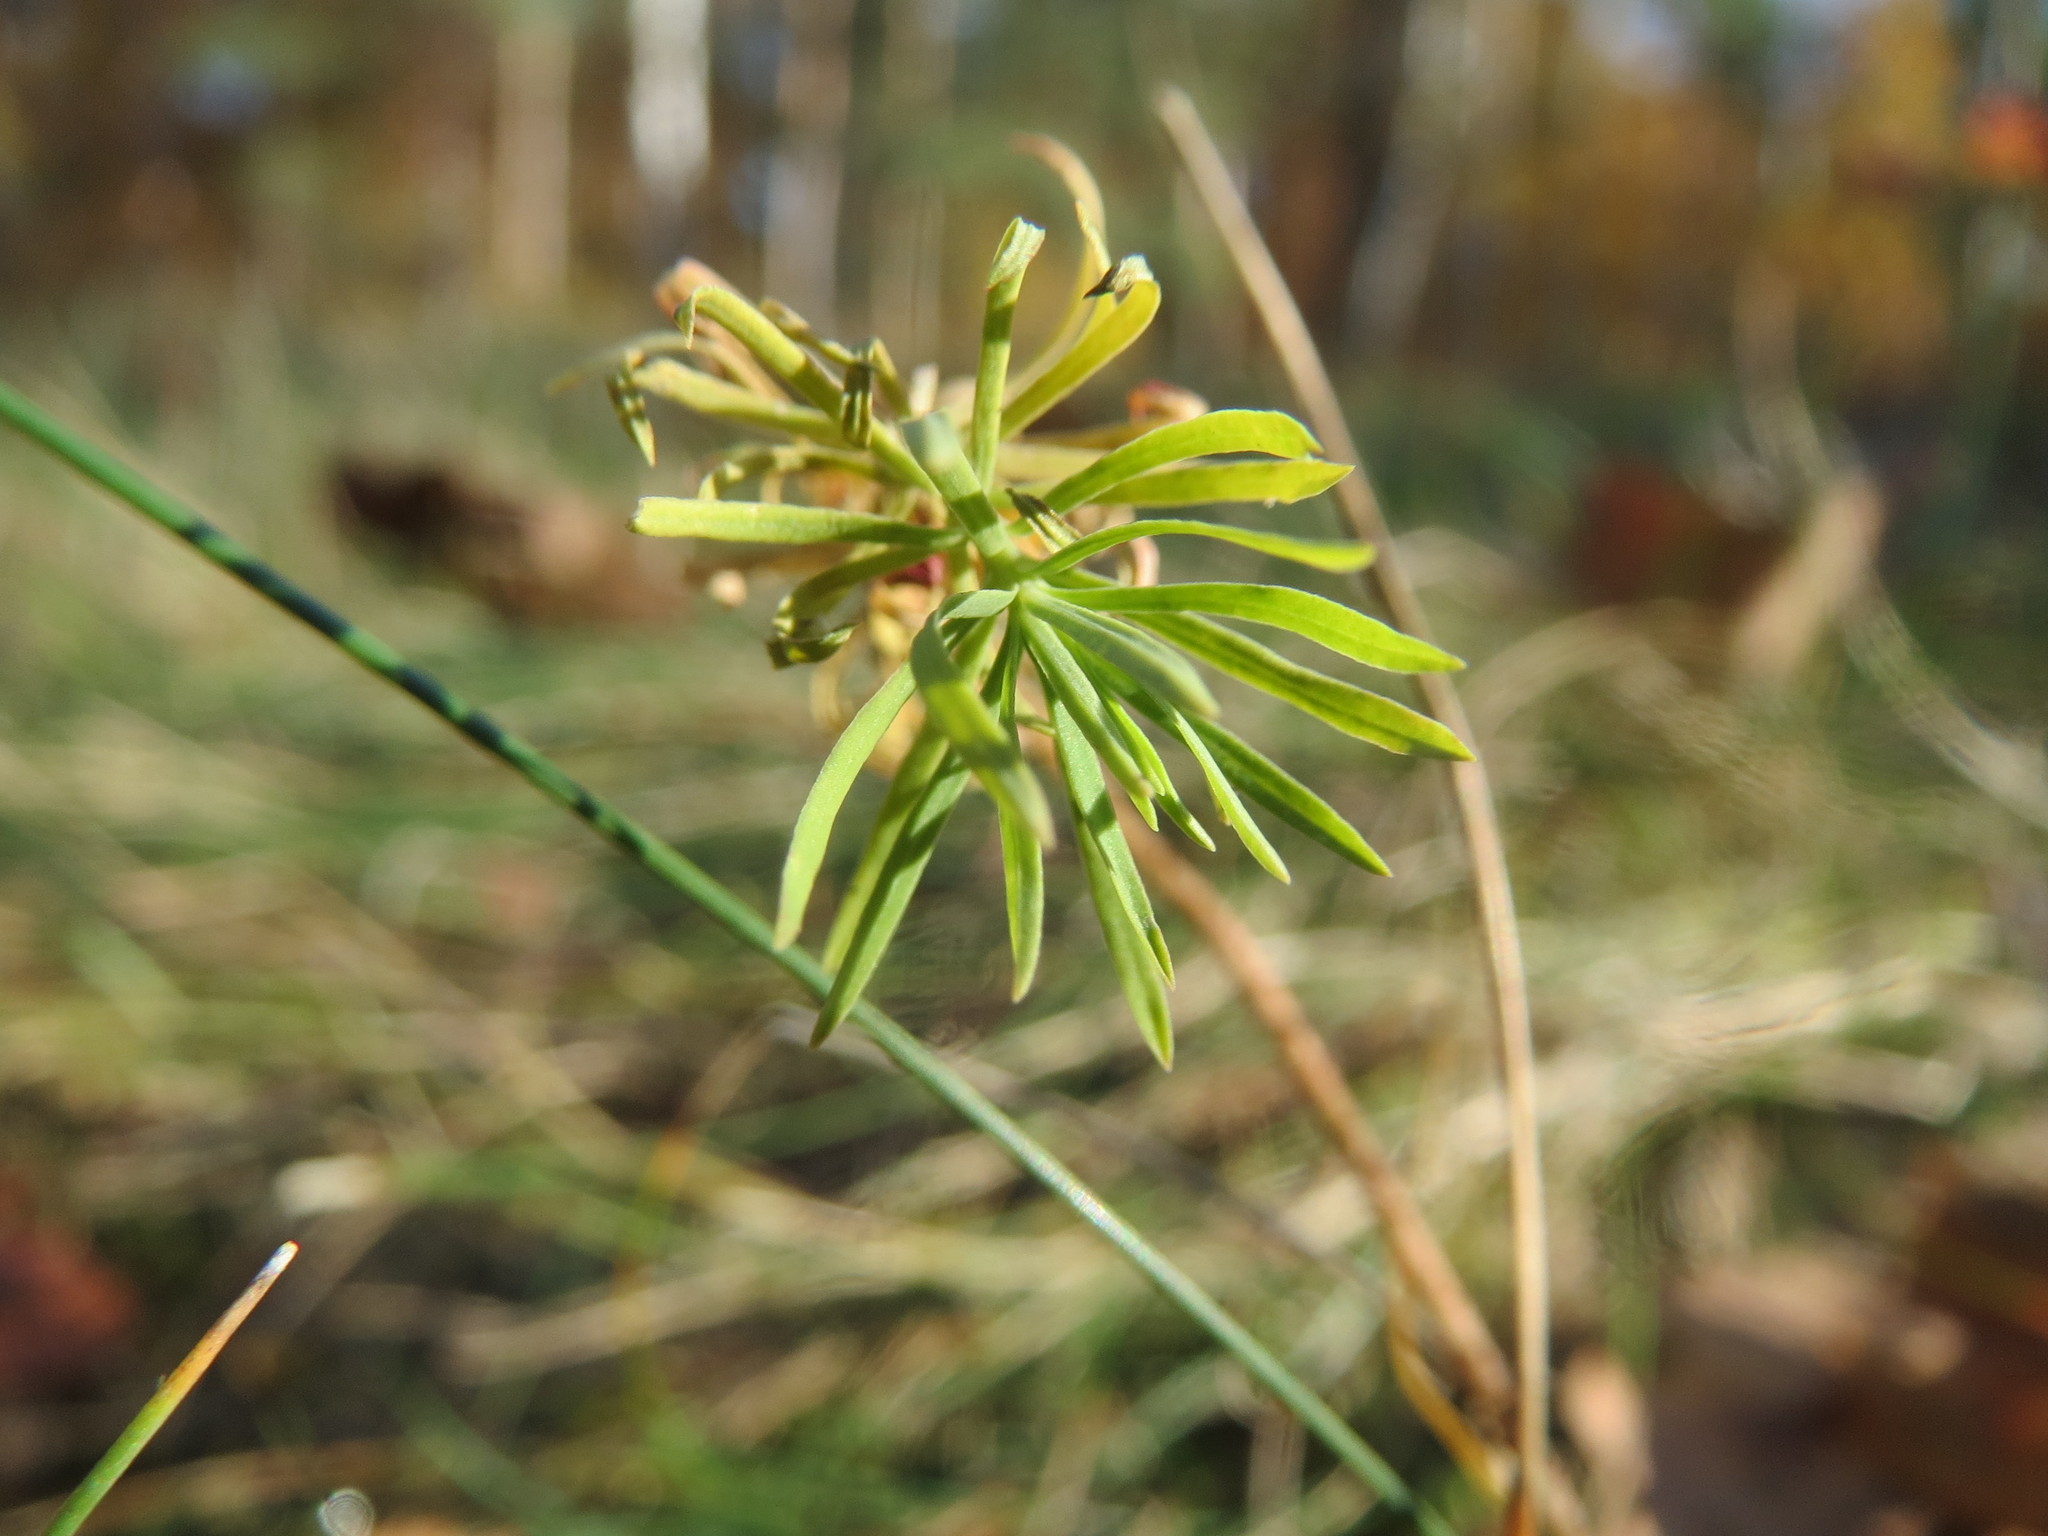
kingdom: Plantae
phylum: Tracheophyta
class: Magnoliopsida
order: Malpighiales
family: Euphorbiaceae
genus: Euphorbia
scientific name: Euphorbia cyparissias
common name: Cypress spurge
